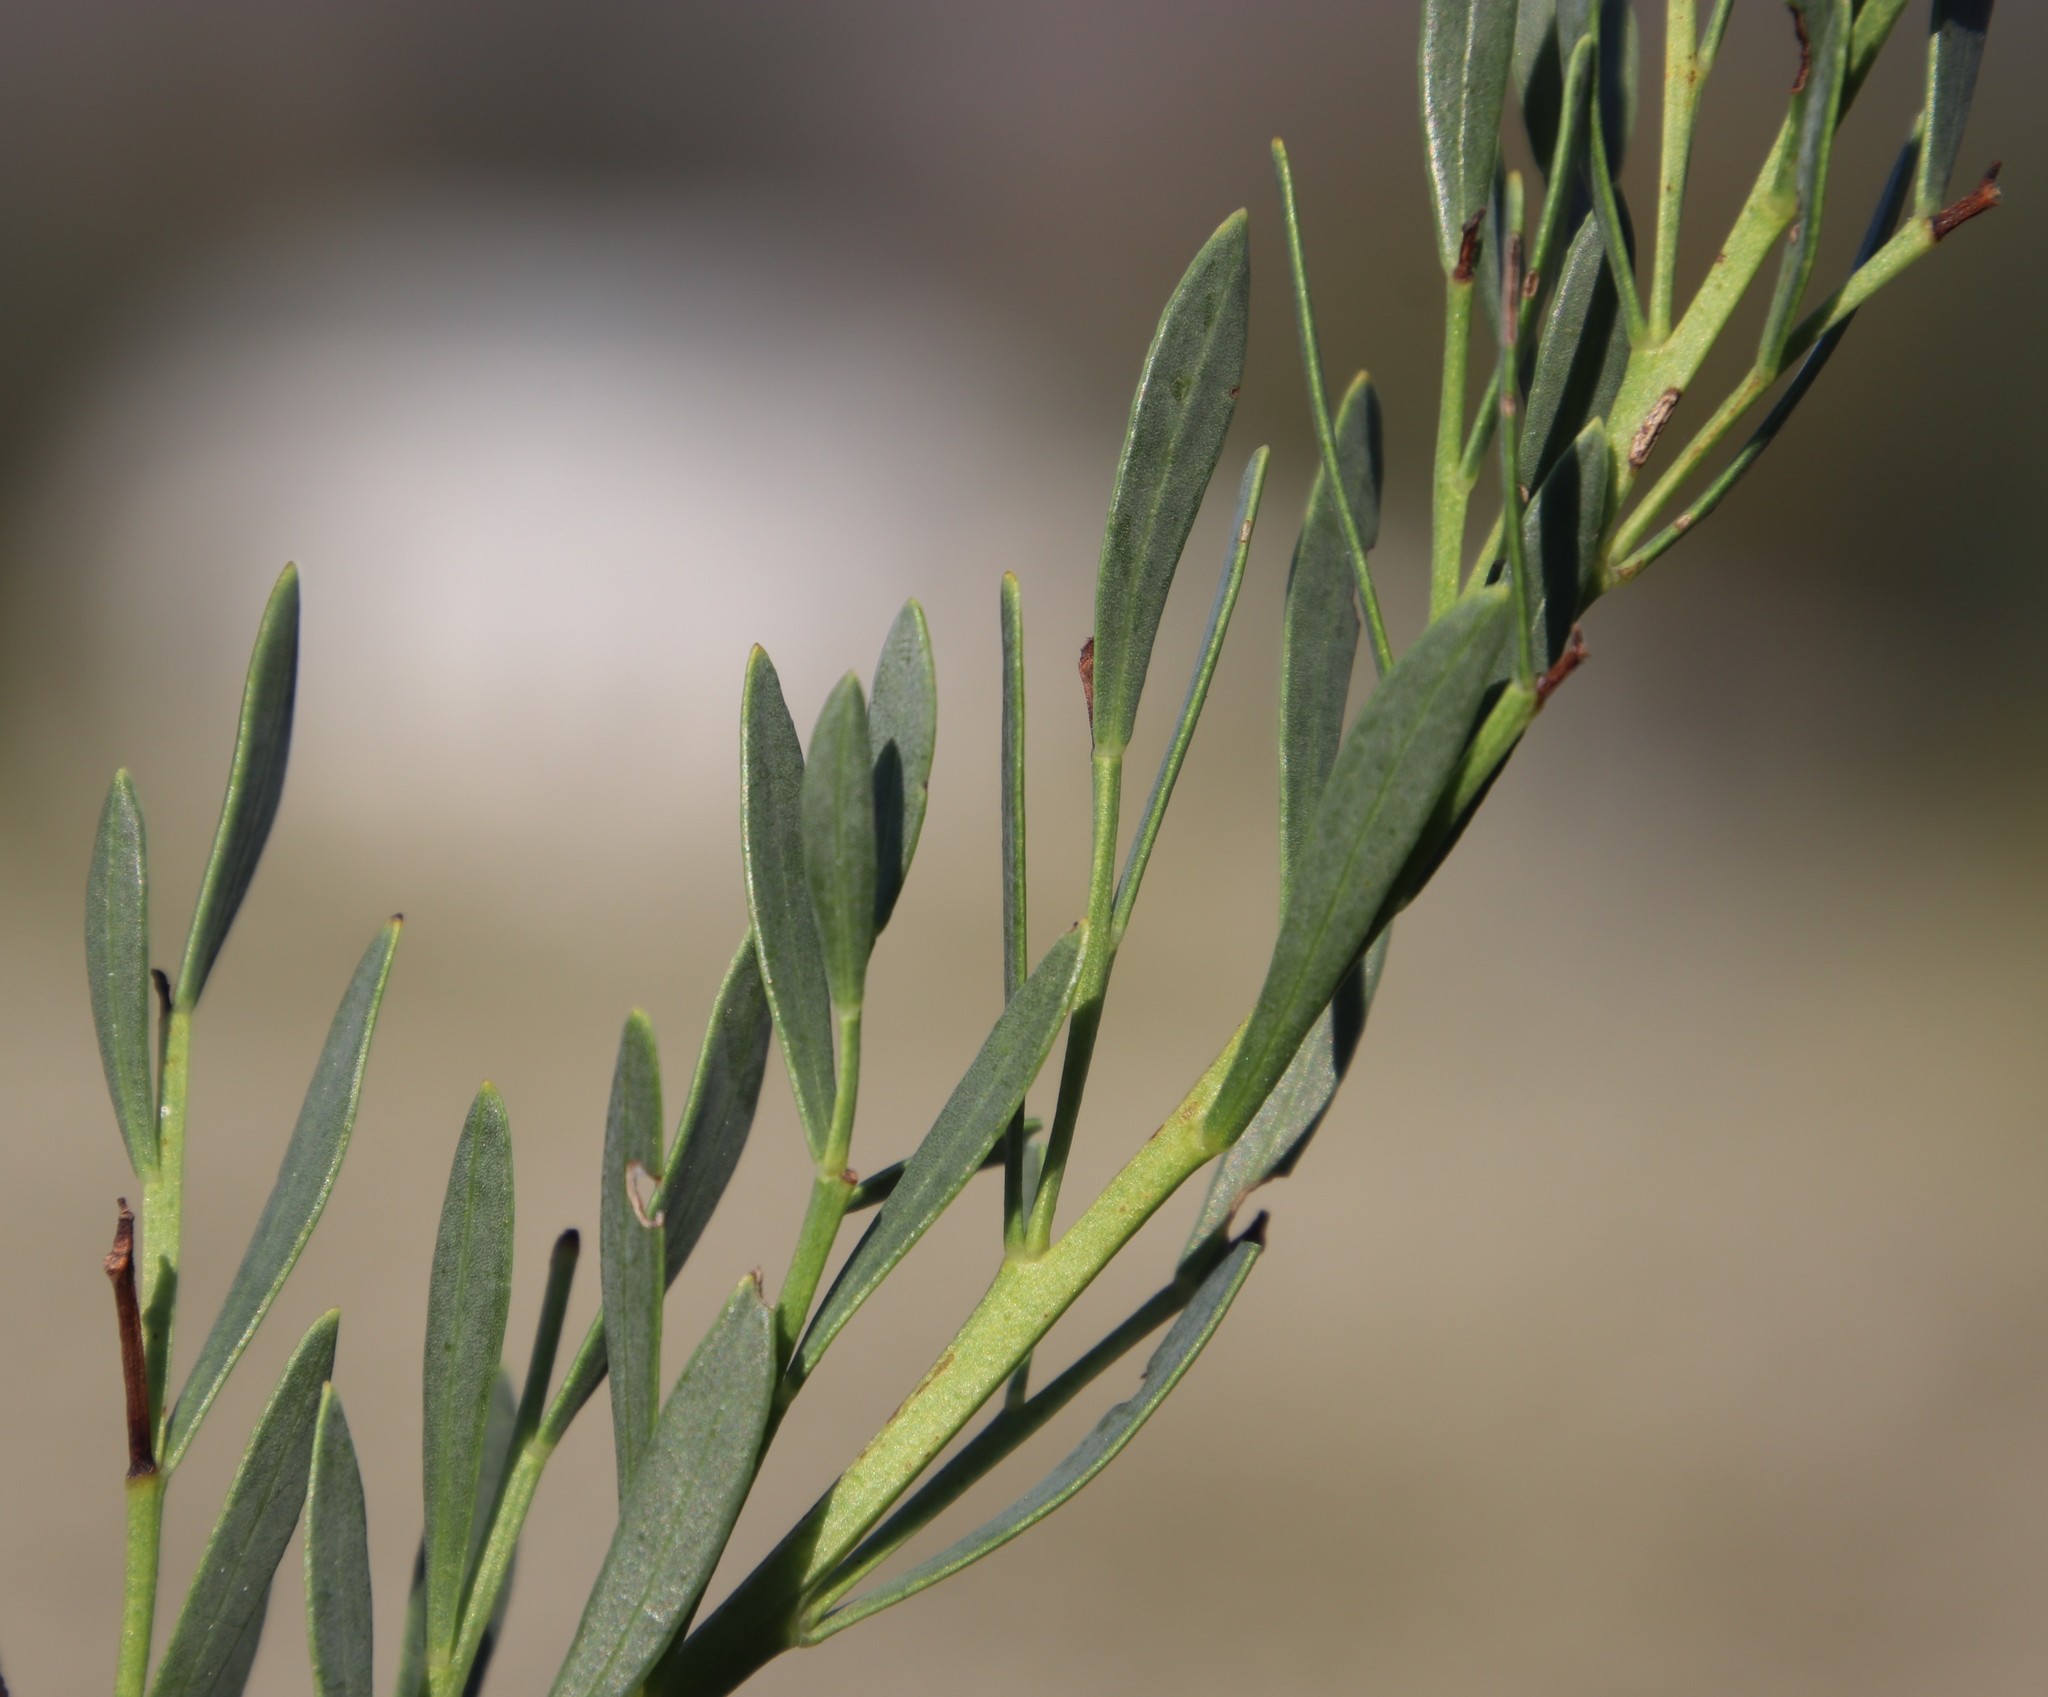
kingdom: Plantae
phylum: Tracheophyta
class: Magnoliopsida
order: Fabales
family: Fabaceae
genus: Rafnia
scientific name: Rafnia capensis
